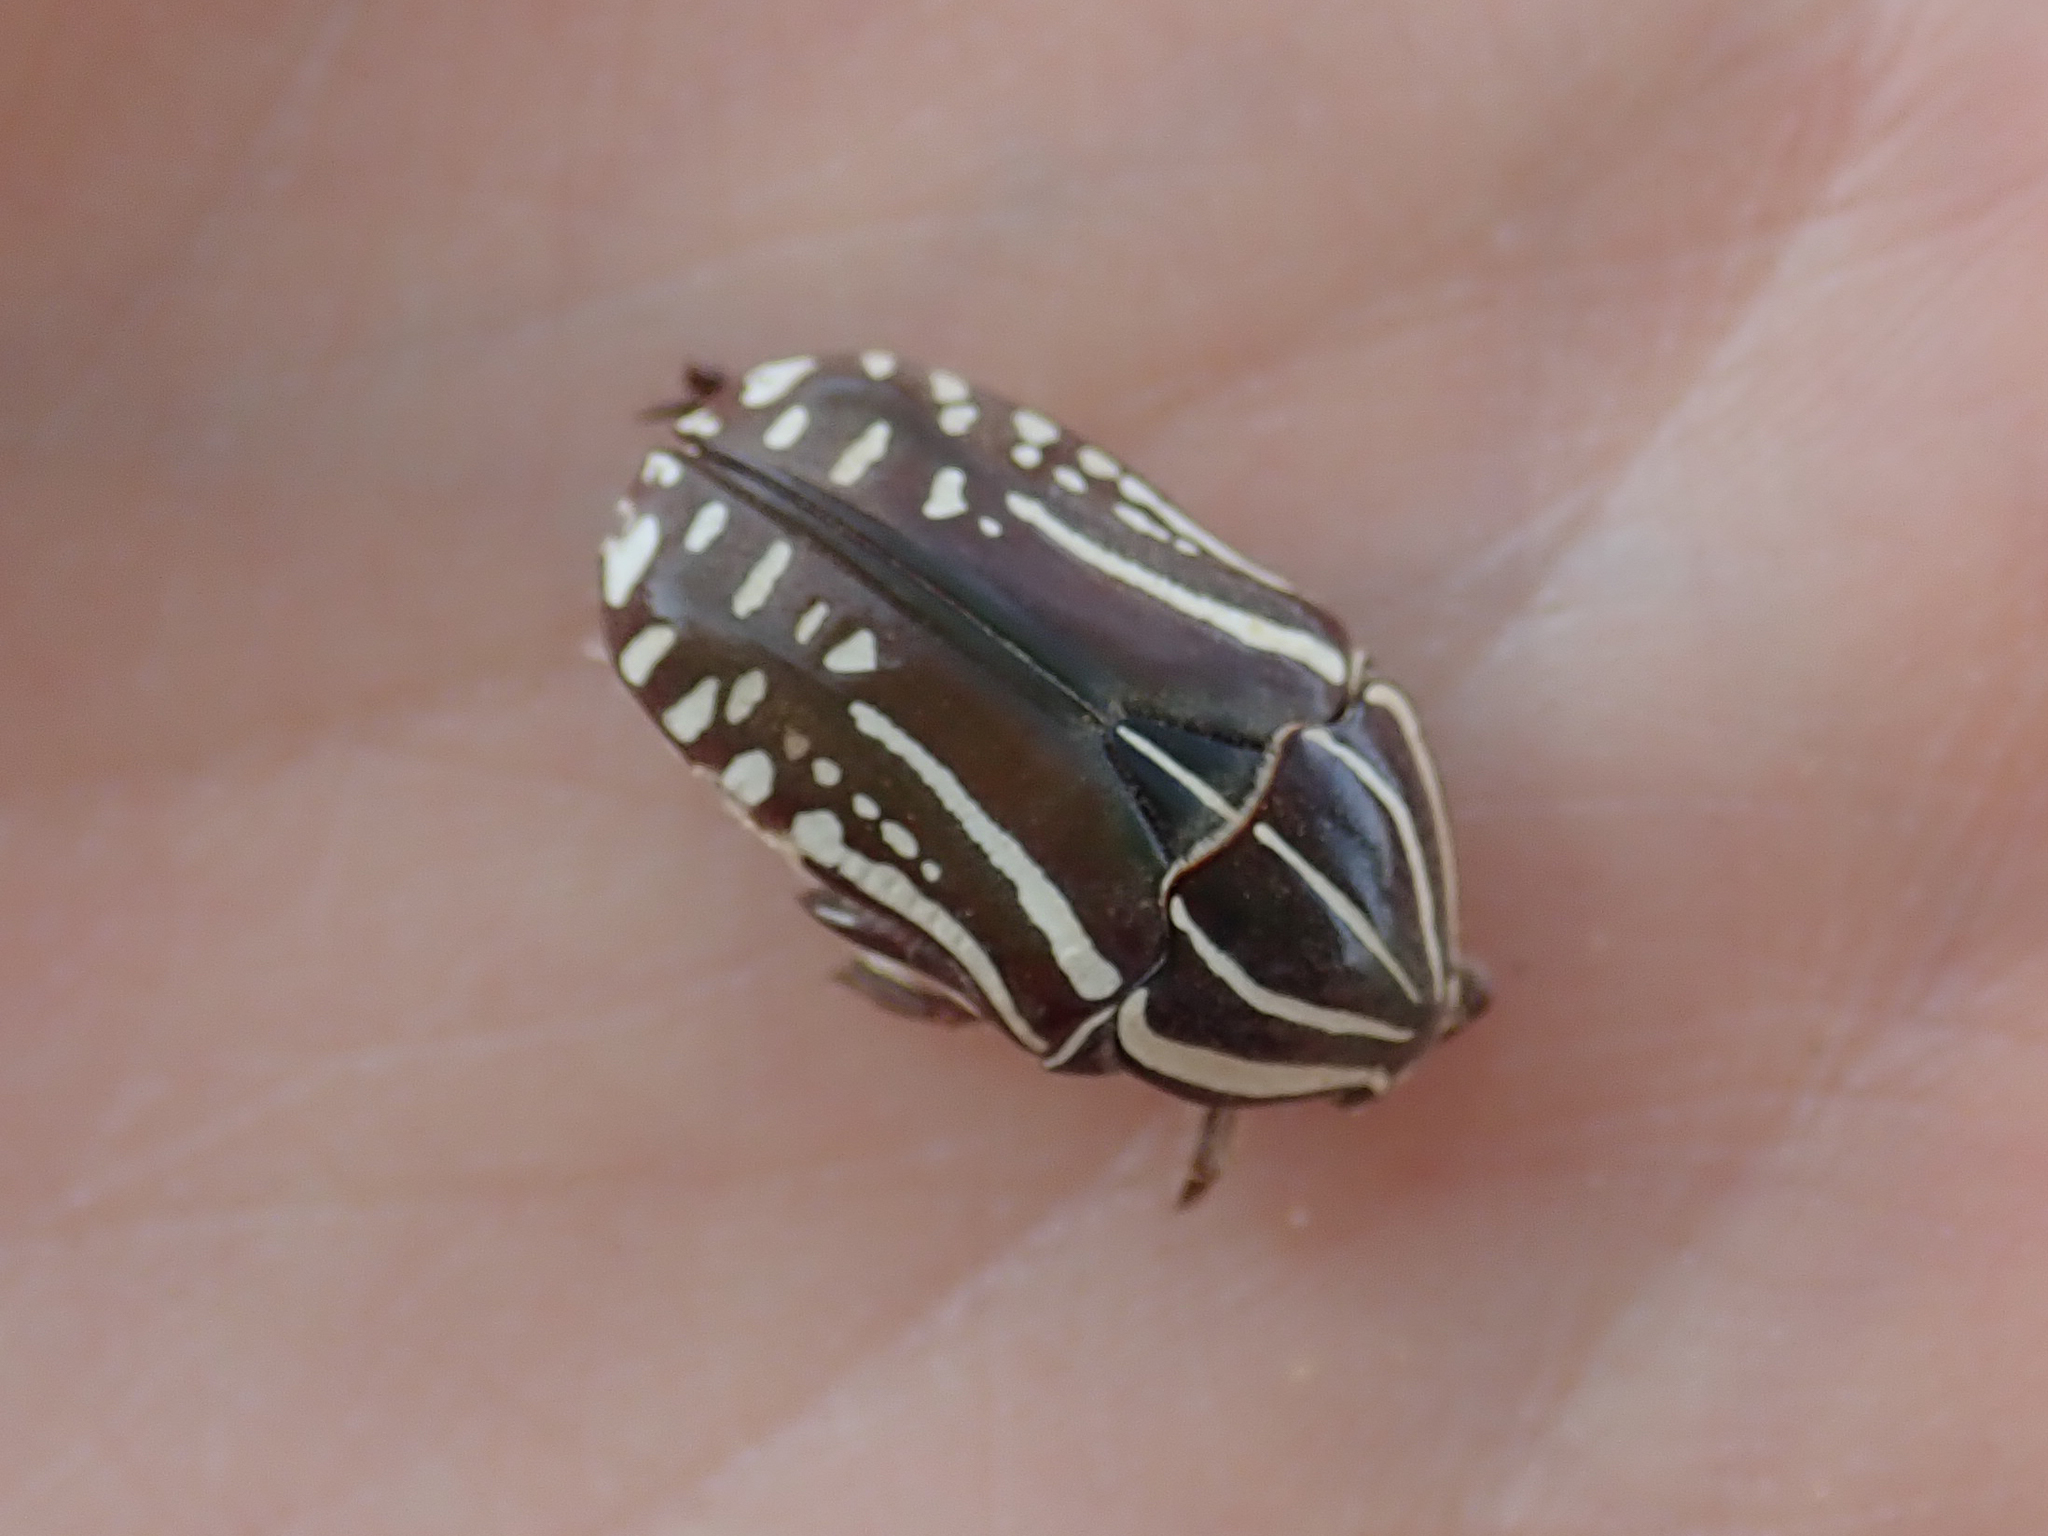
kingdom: Animalia
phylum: Arthropoda
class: Insecta
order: Coleoptera
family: Scarabaeidae
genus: Rhabdotis
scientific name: Rhabdotis bouchardi
